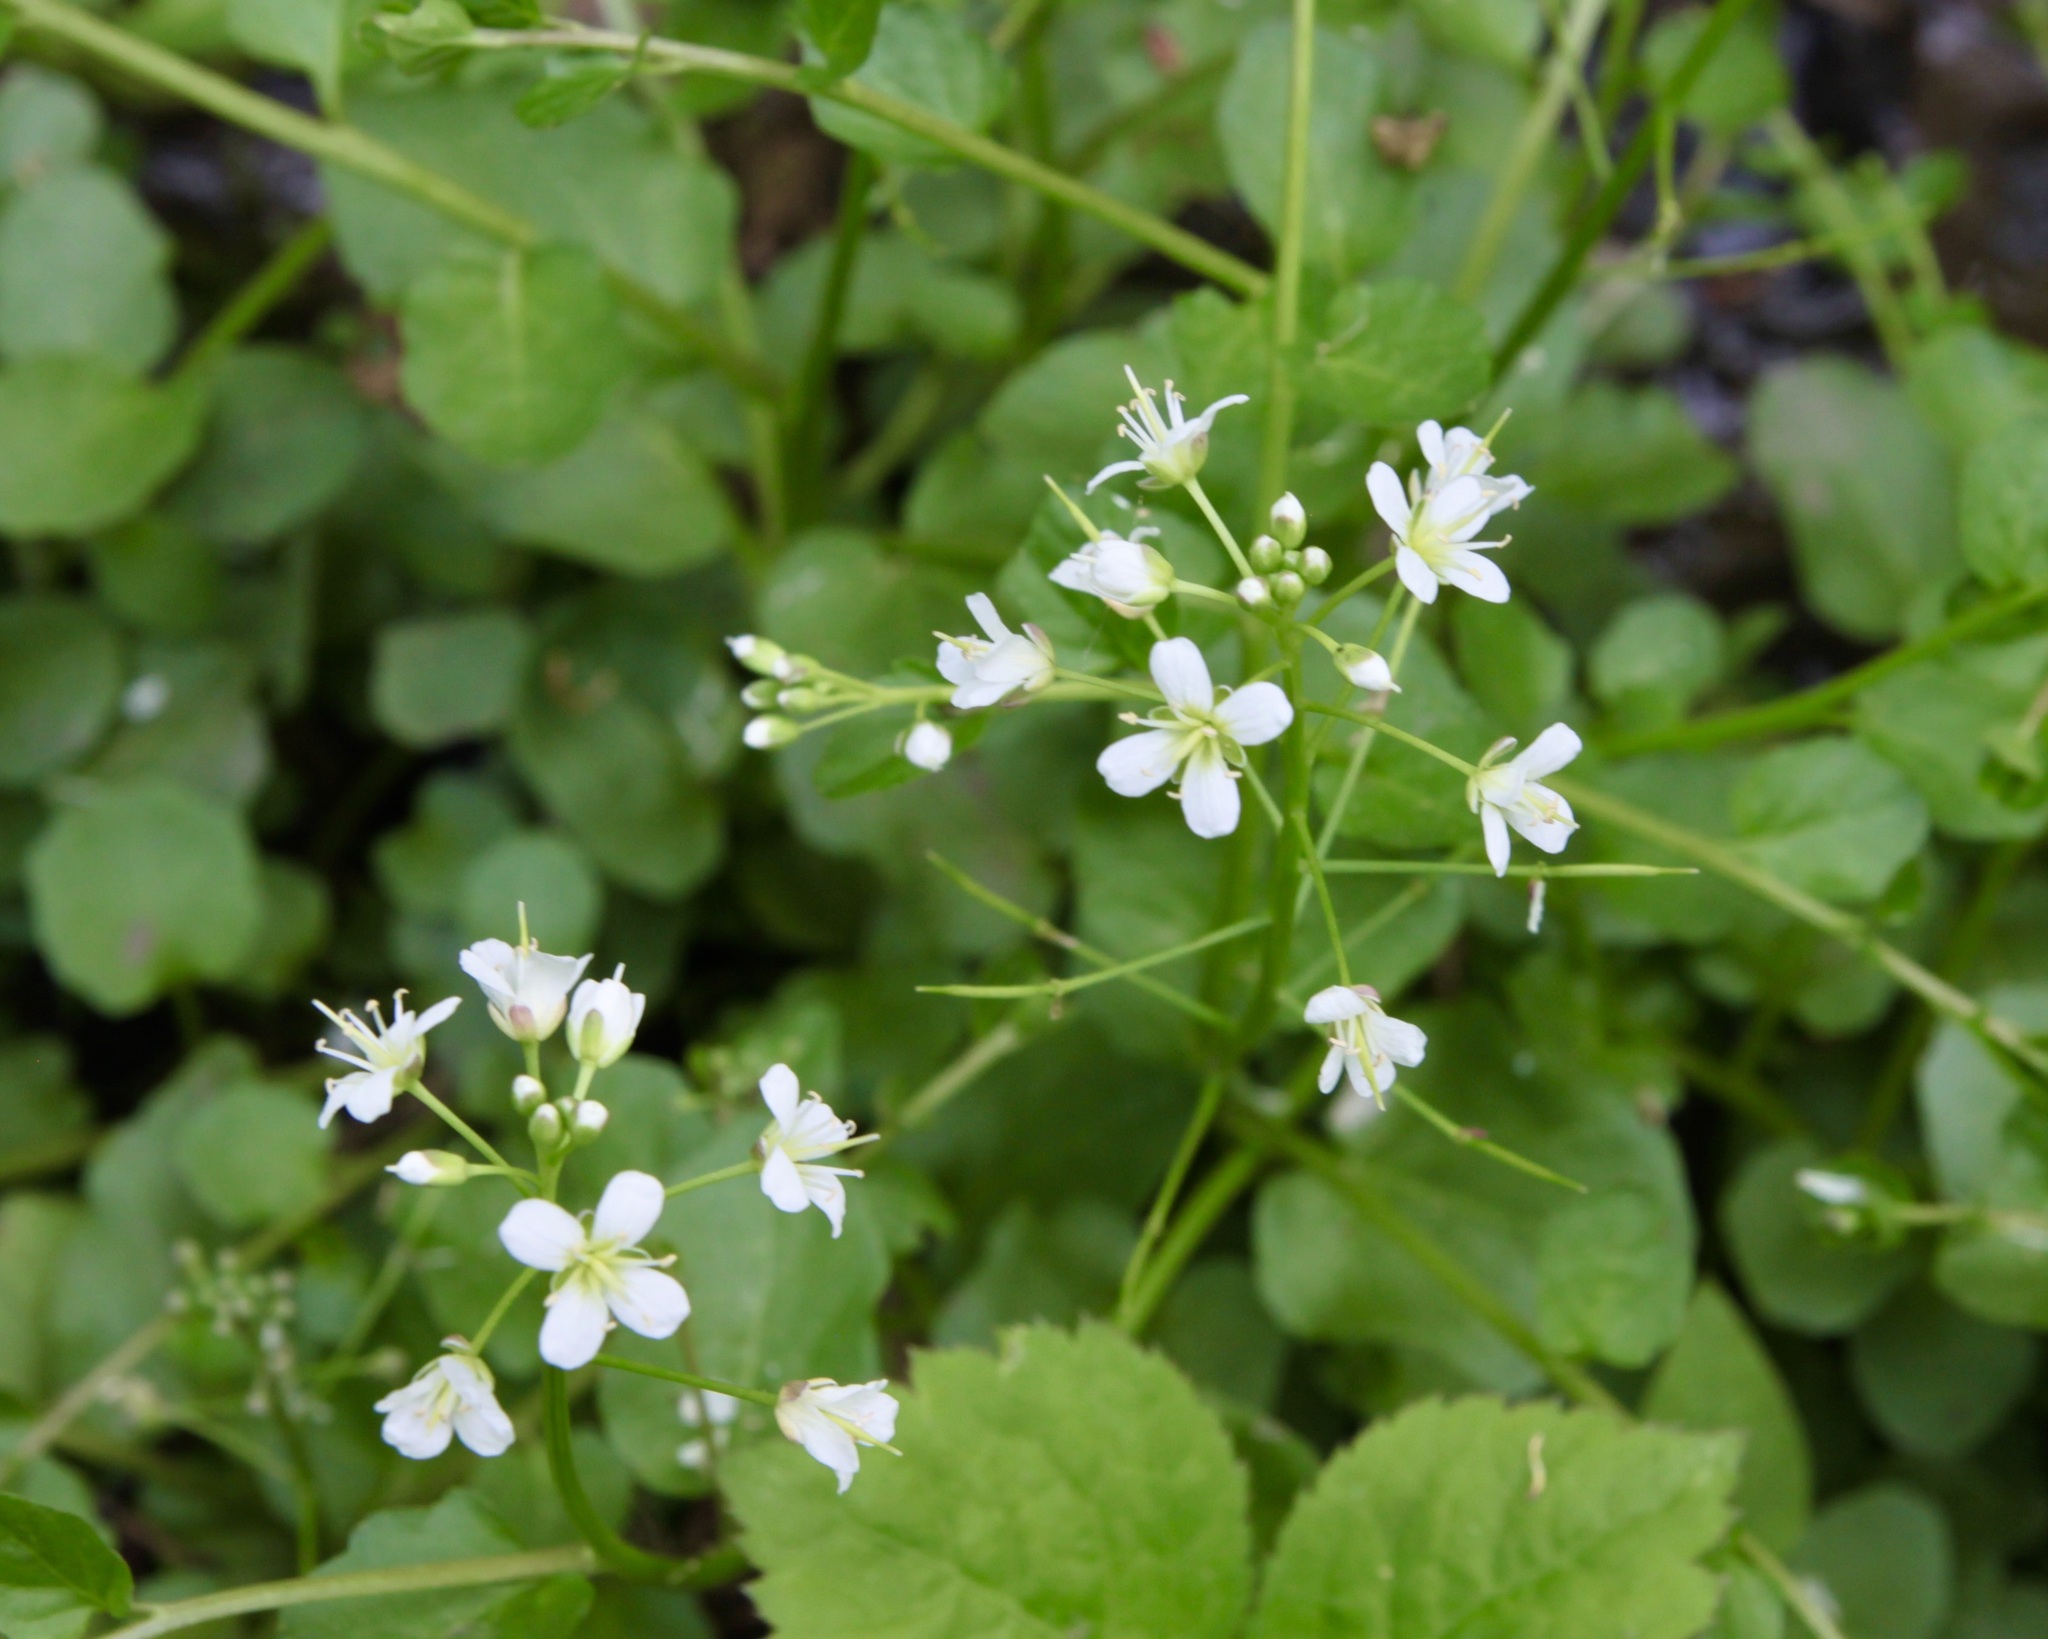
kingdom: Plantae
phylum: Tracheophyta
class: Magnoliopsida
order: Brassicales
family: Brassicaceae
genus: Cardamine
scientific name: Cardamine bulbosa
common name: Spring cress
